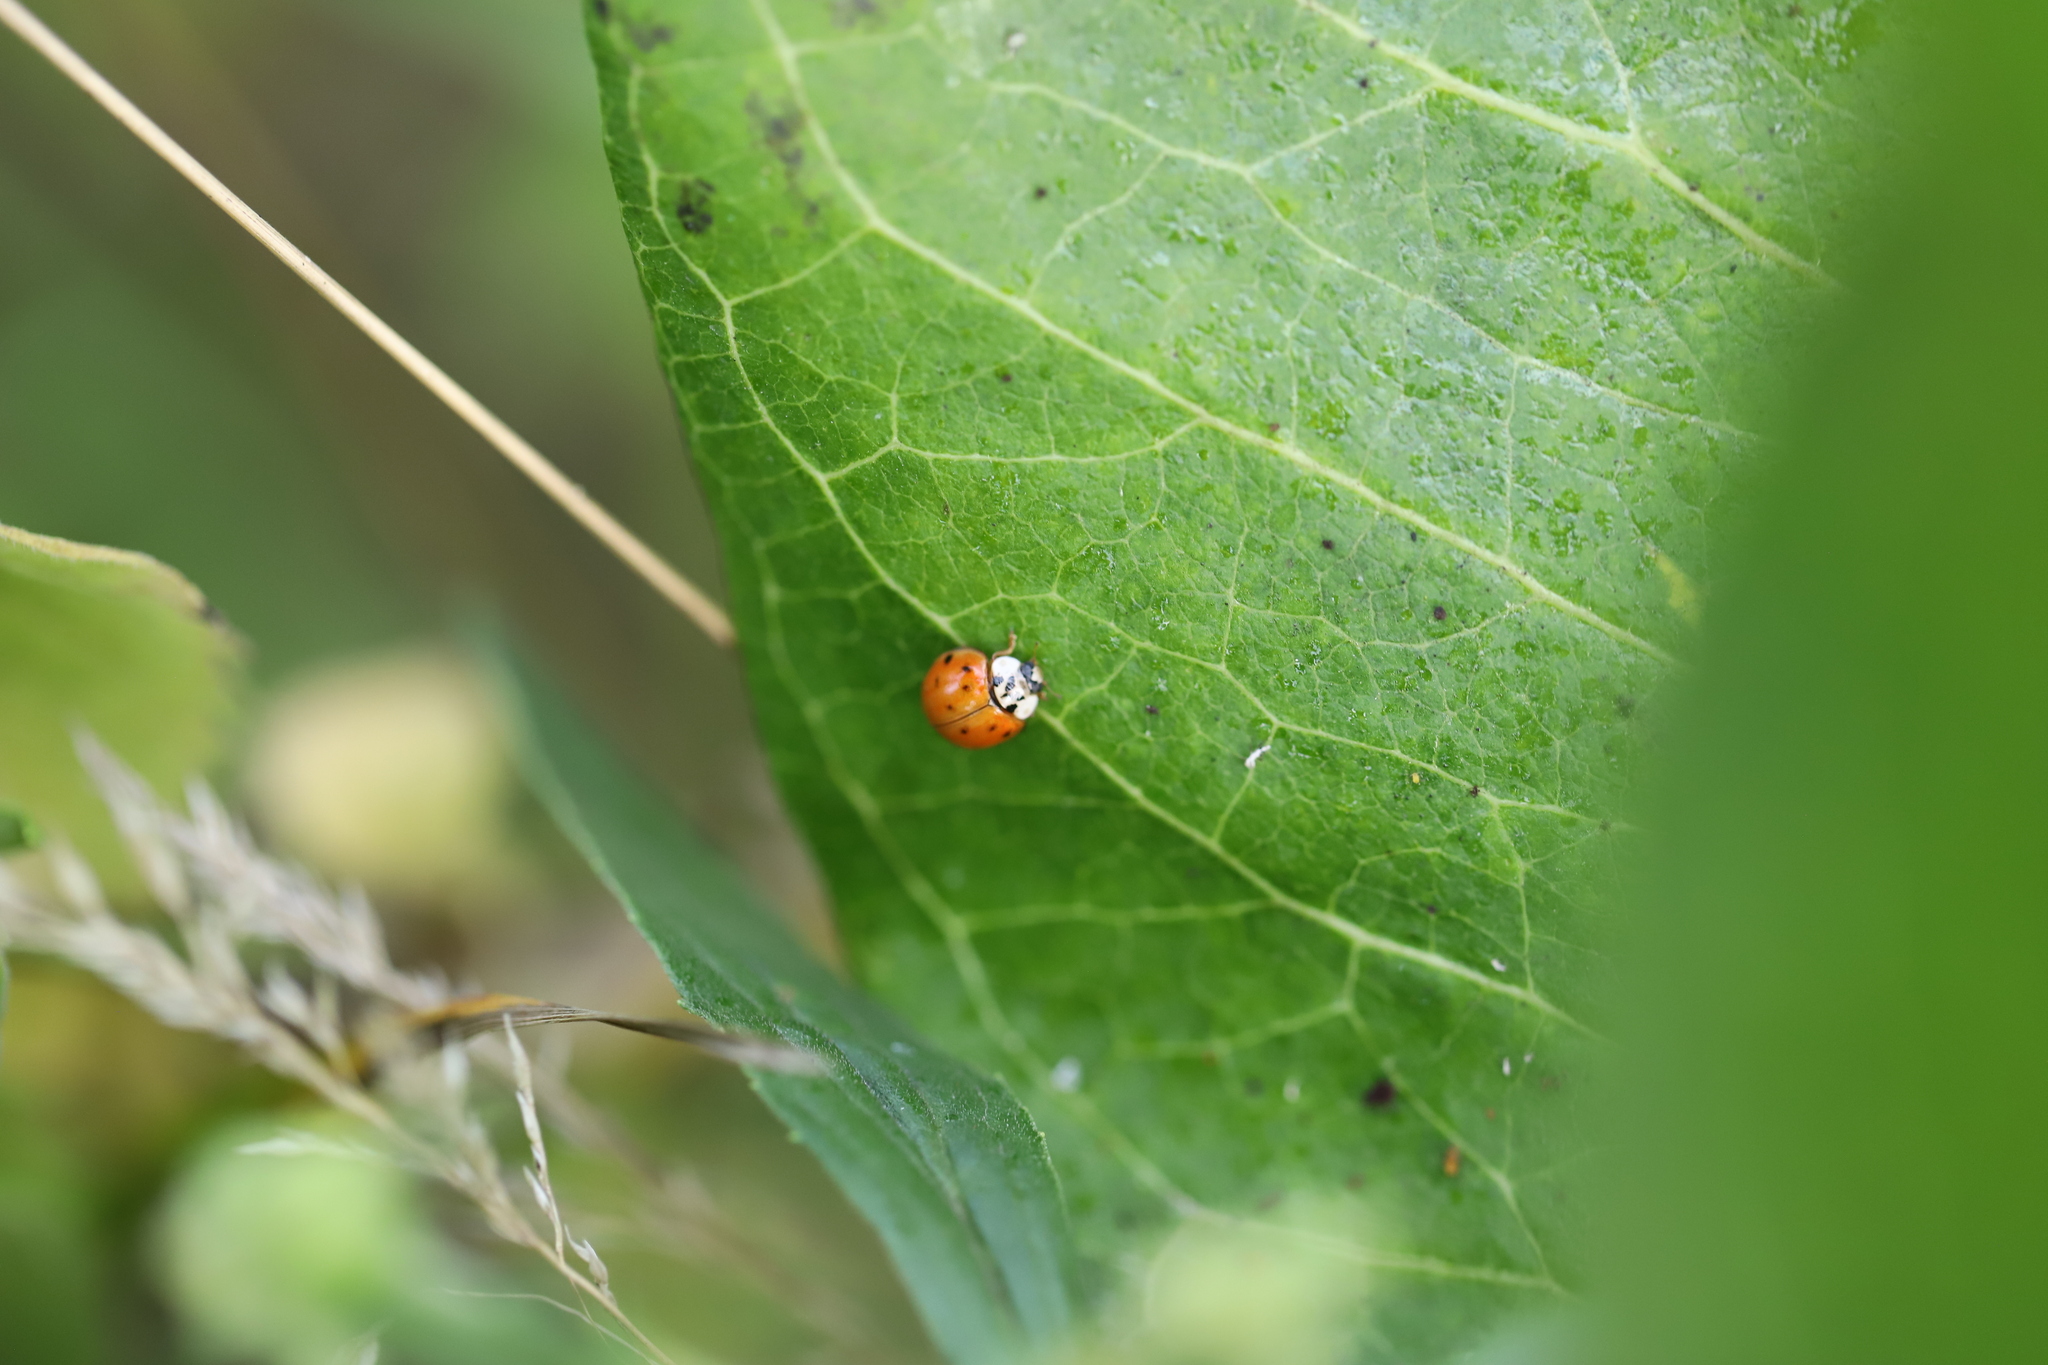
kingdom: Animalia
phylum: Arthropoda
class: Insecta
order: Coleoptera
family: Coccinellidae
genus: Harmonia
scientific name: Harmonia axyridis
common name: Harlequin ladybird
